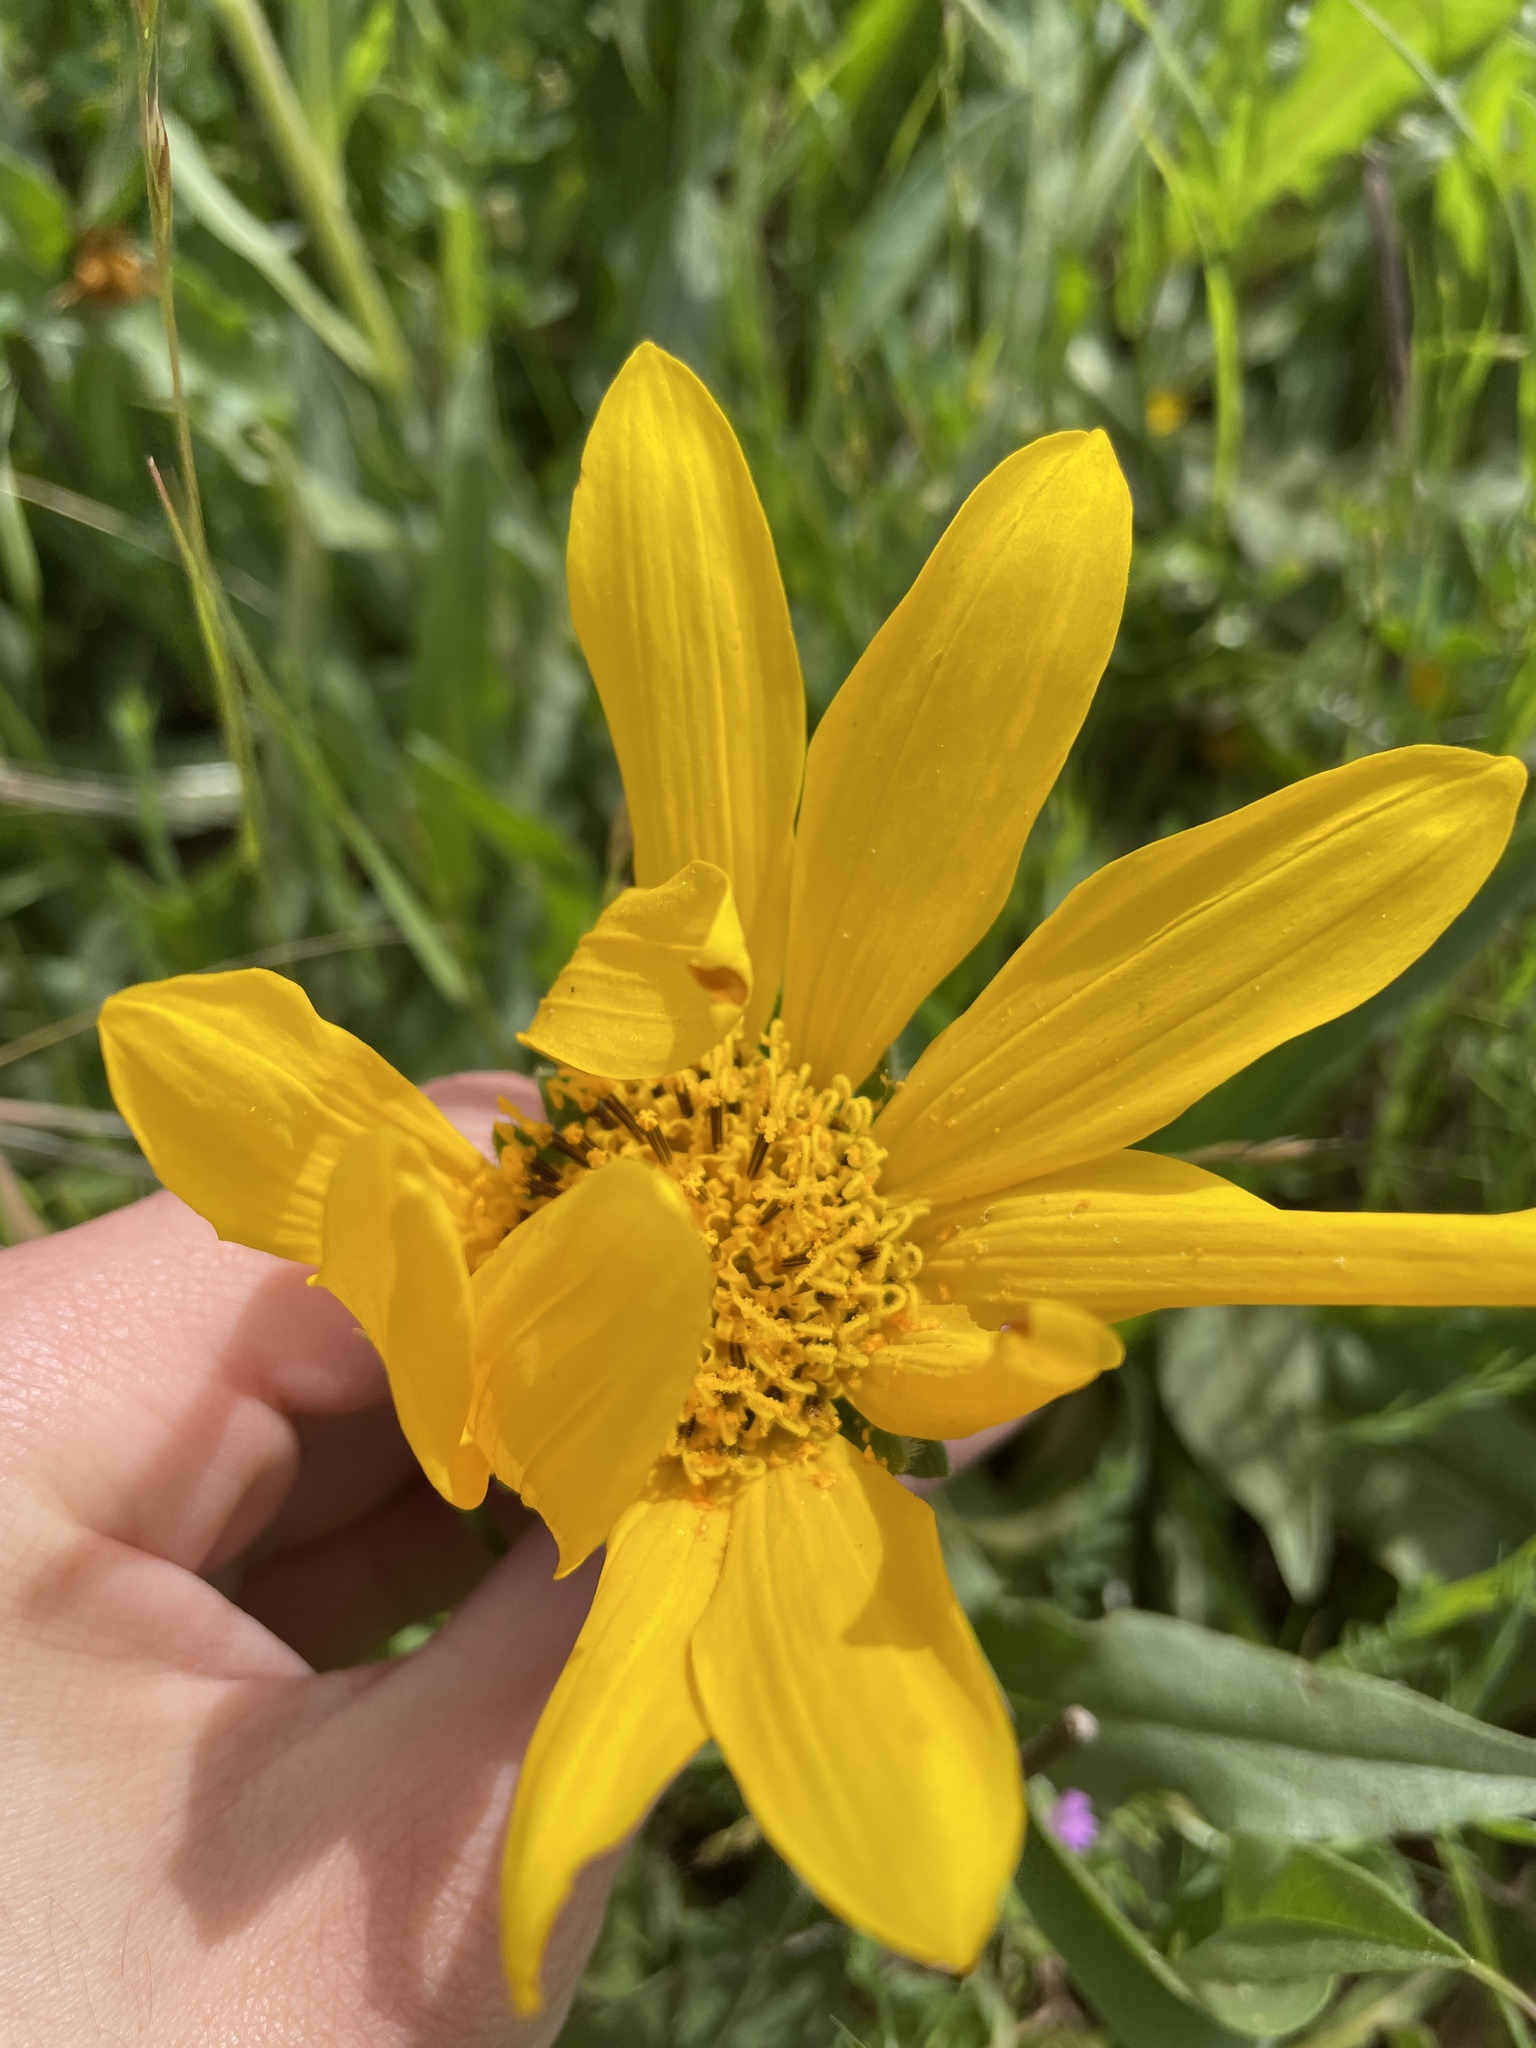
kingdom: Plantae
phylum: Tracheophyta
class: Magnoliopsida
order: Asterales
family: Asteraceae
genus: Wyethia
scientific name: Wyethia angustifolia
